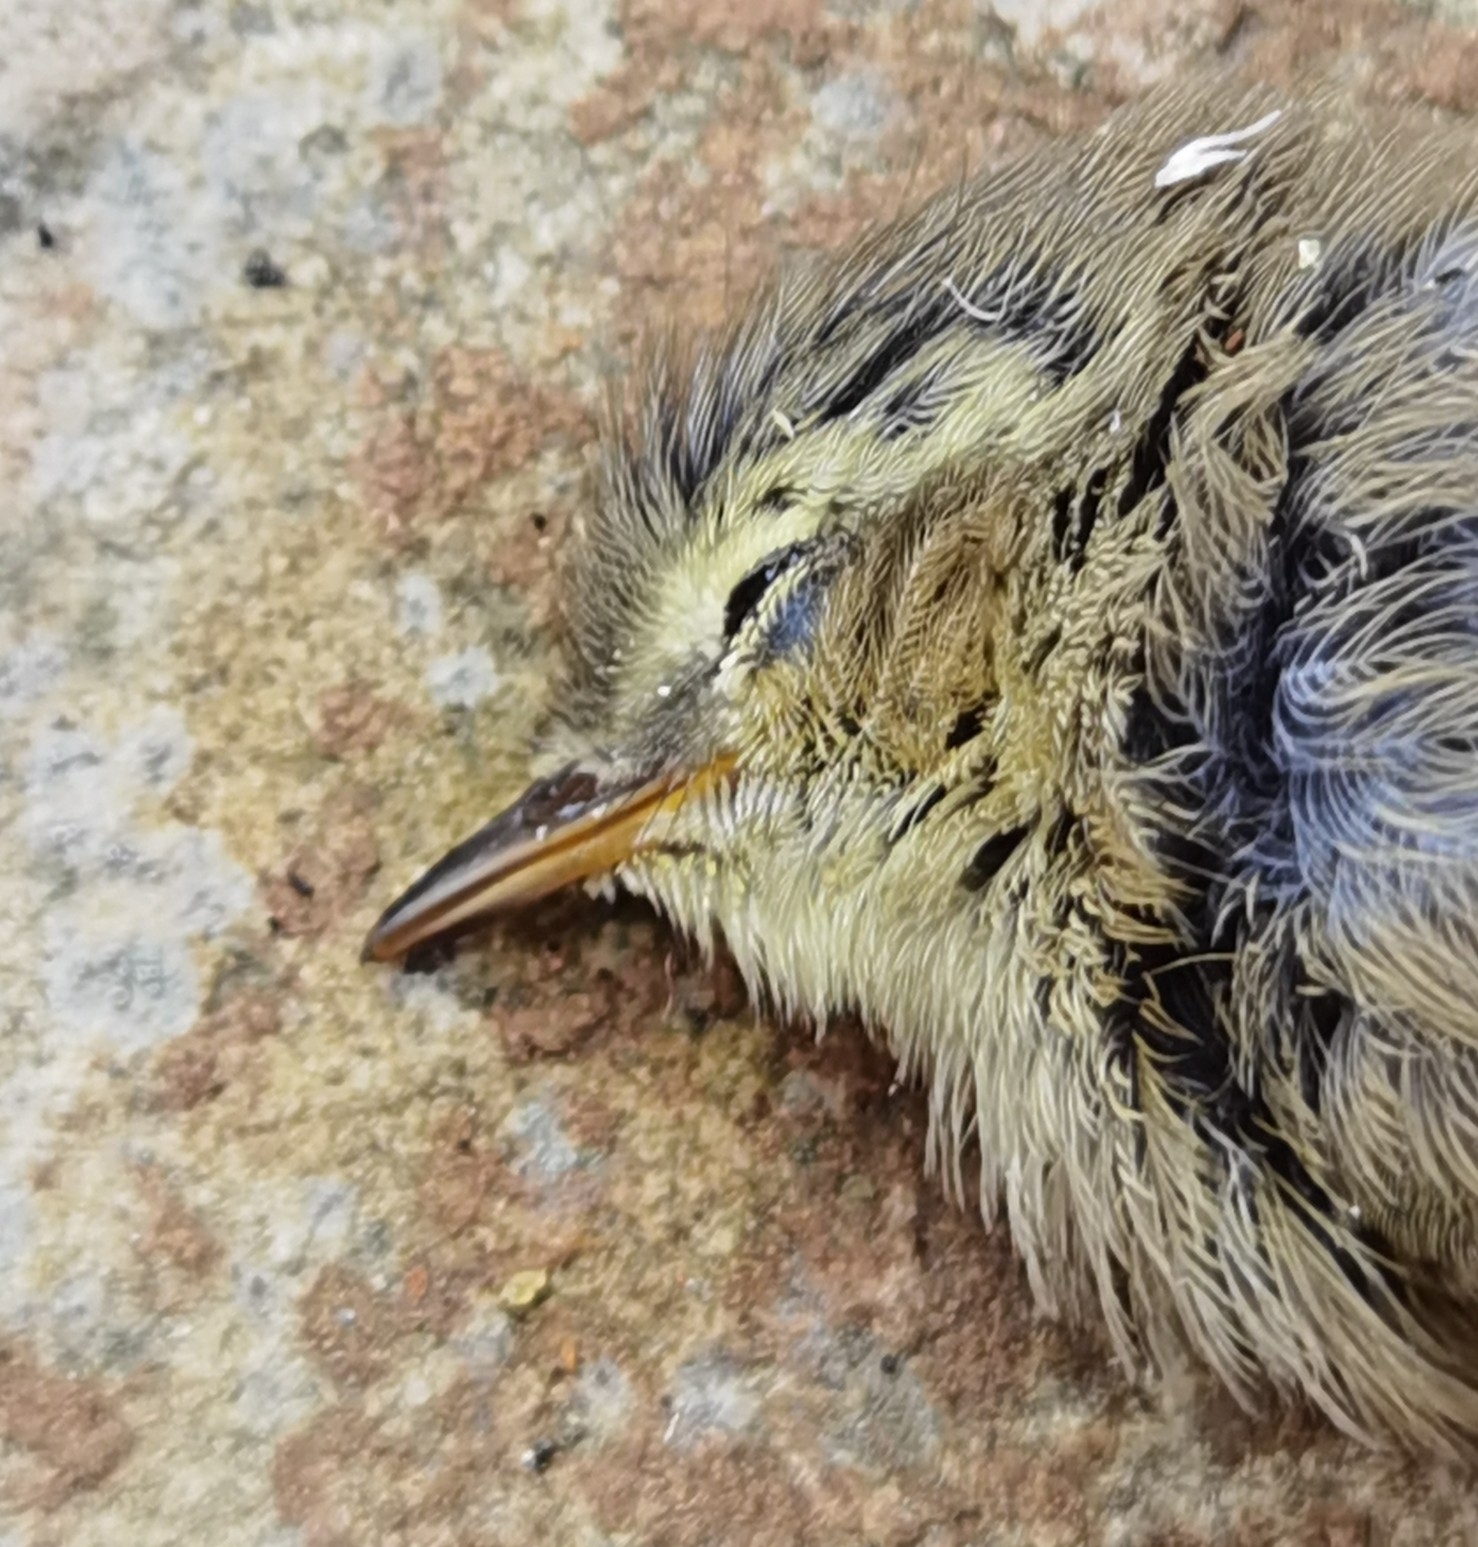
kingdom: Animalia
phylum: Chordata
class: Aves
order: Passeriformes
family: Phylloscopidae
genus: Phylloscopus
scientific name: Phylloscopus collybita
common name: Common chiffchaff
